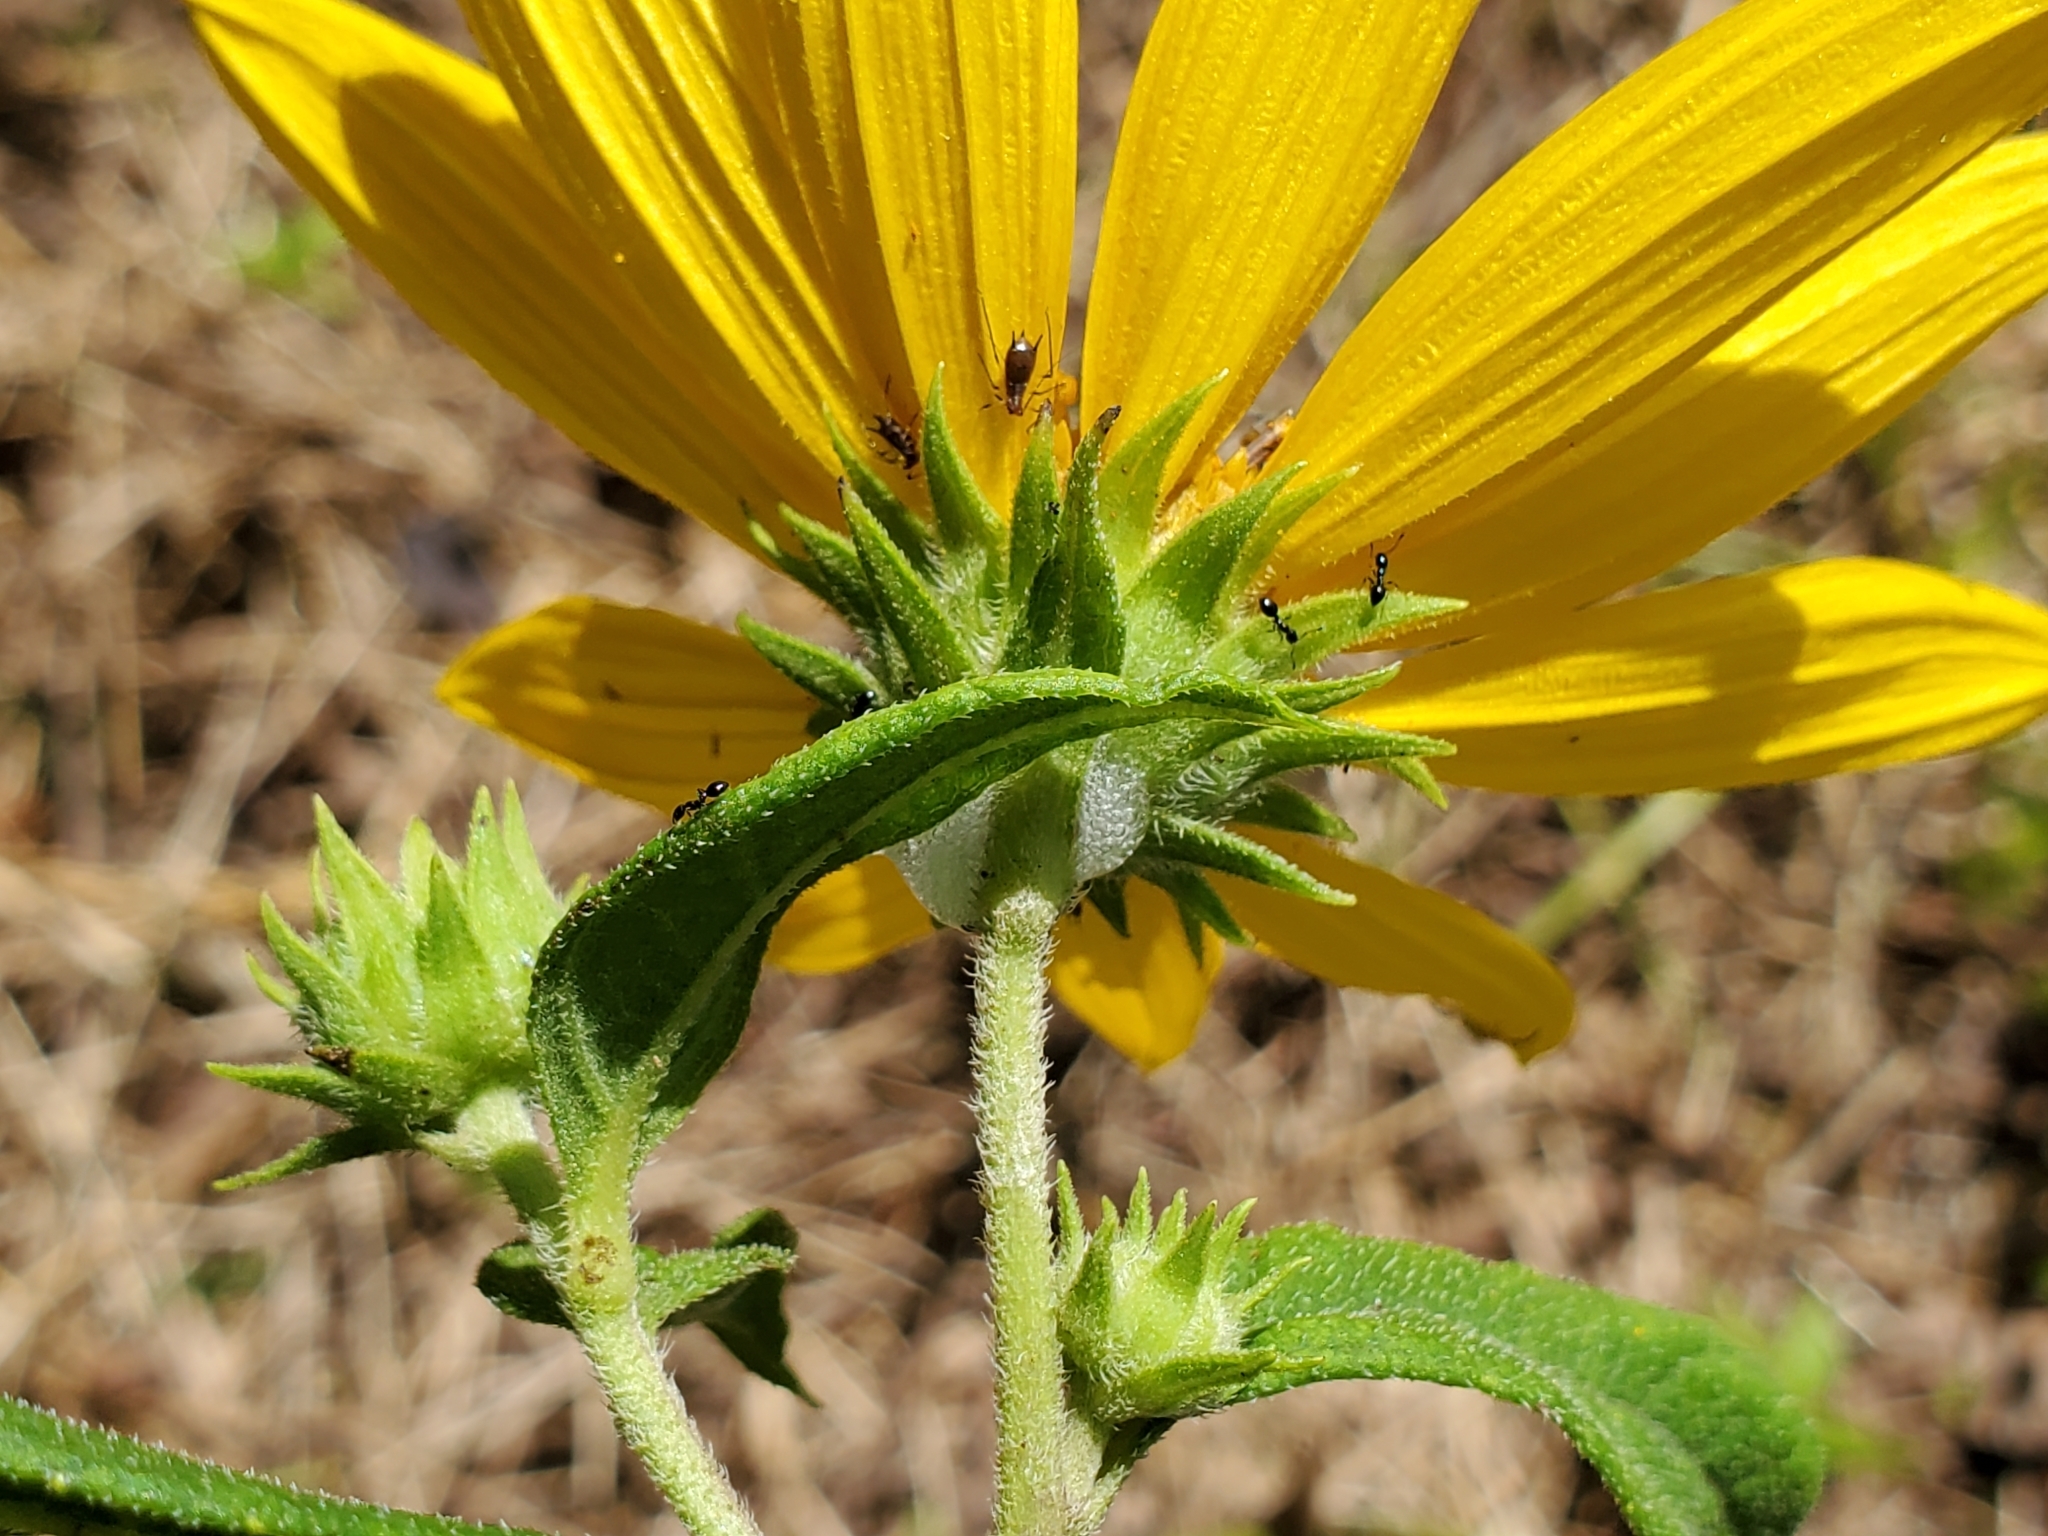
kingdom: Plantae
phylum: Tracheophyta
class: Magnoliopsida
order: Asterales
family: Asteraceae
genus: Helianthus
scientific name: Helianthus hirsutus
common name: Hairy sunflower
